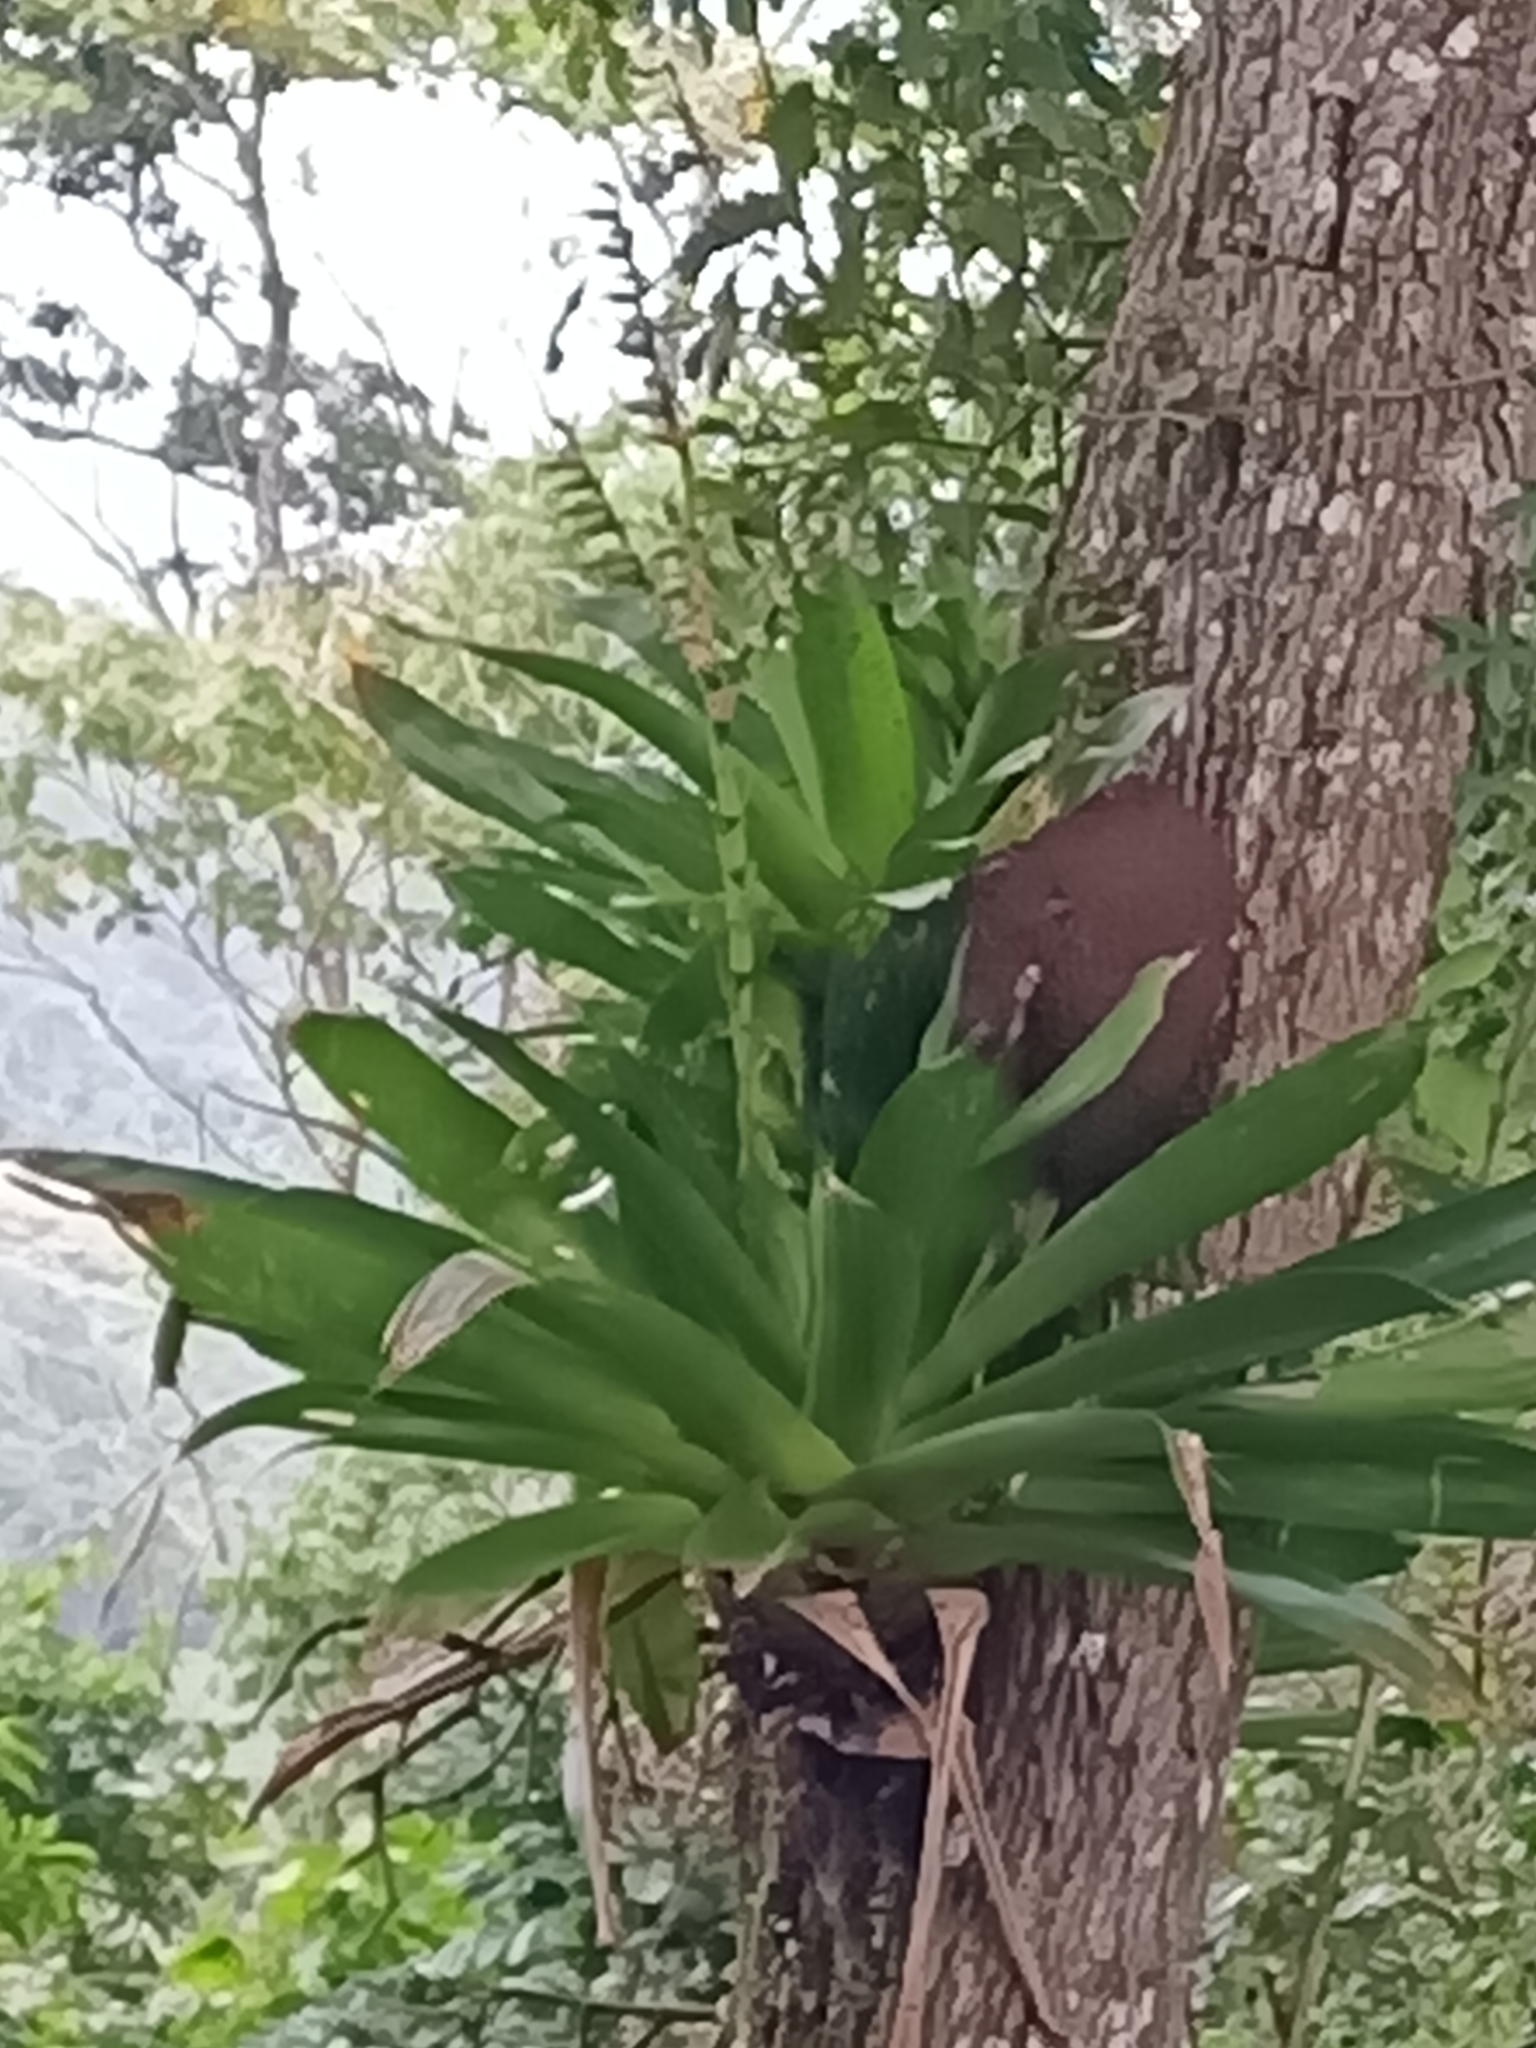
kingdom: Plantae
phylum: Tracheophyta
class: Liliopsida
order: Poales
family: Bromeliaceae
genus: Werauhia
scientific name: Werauhia gigantea
